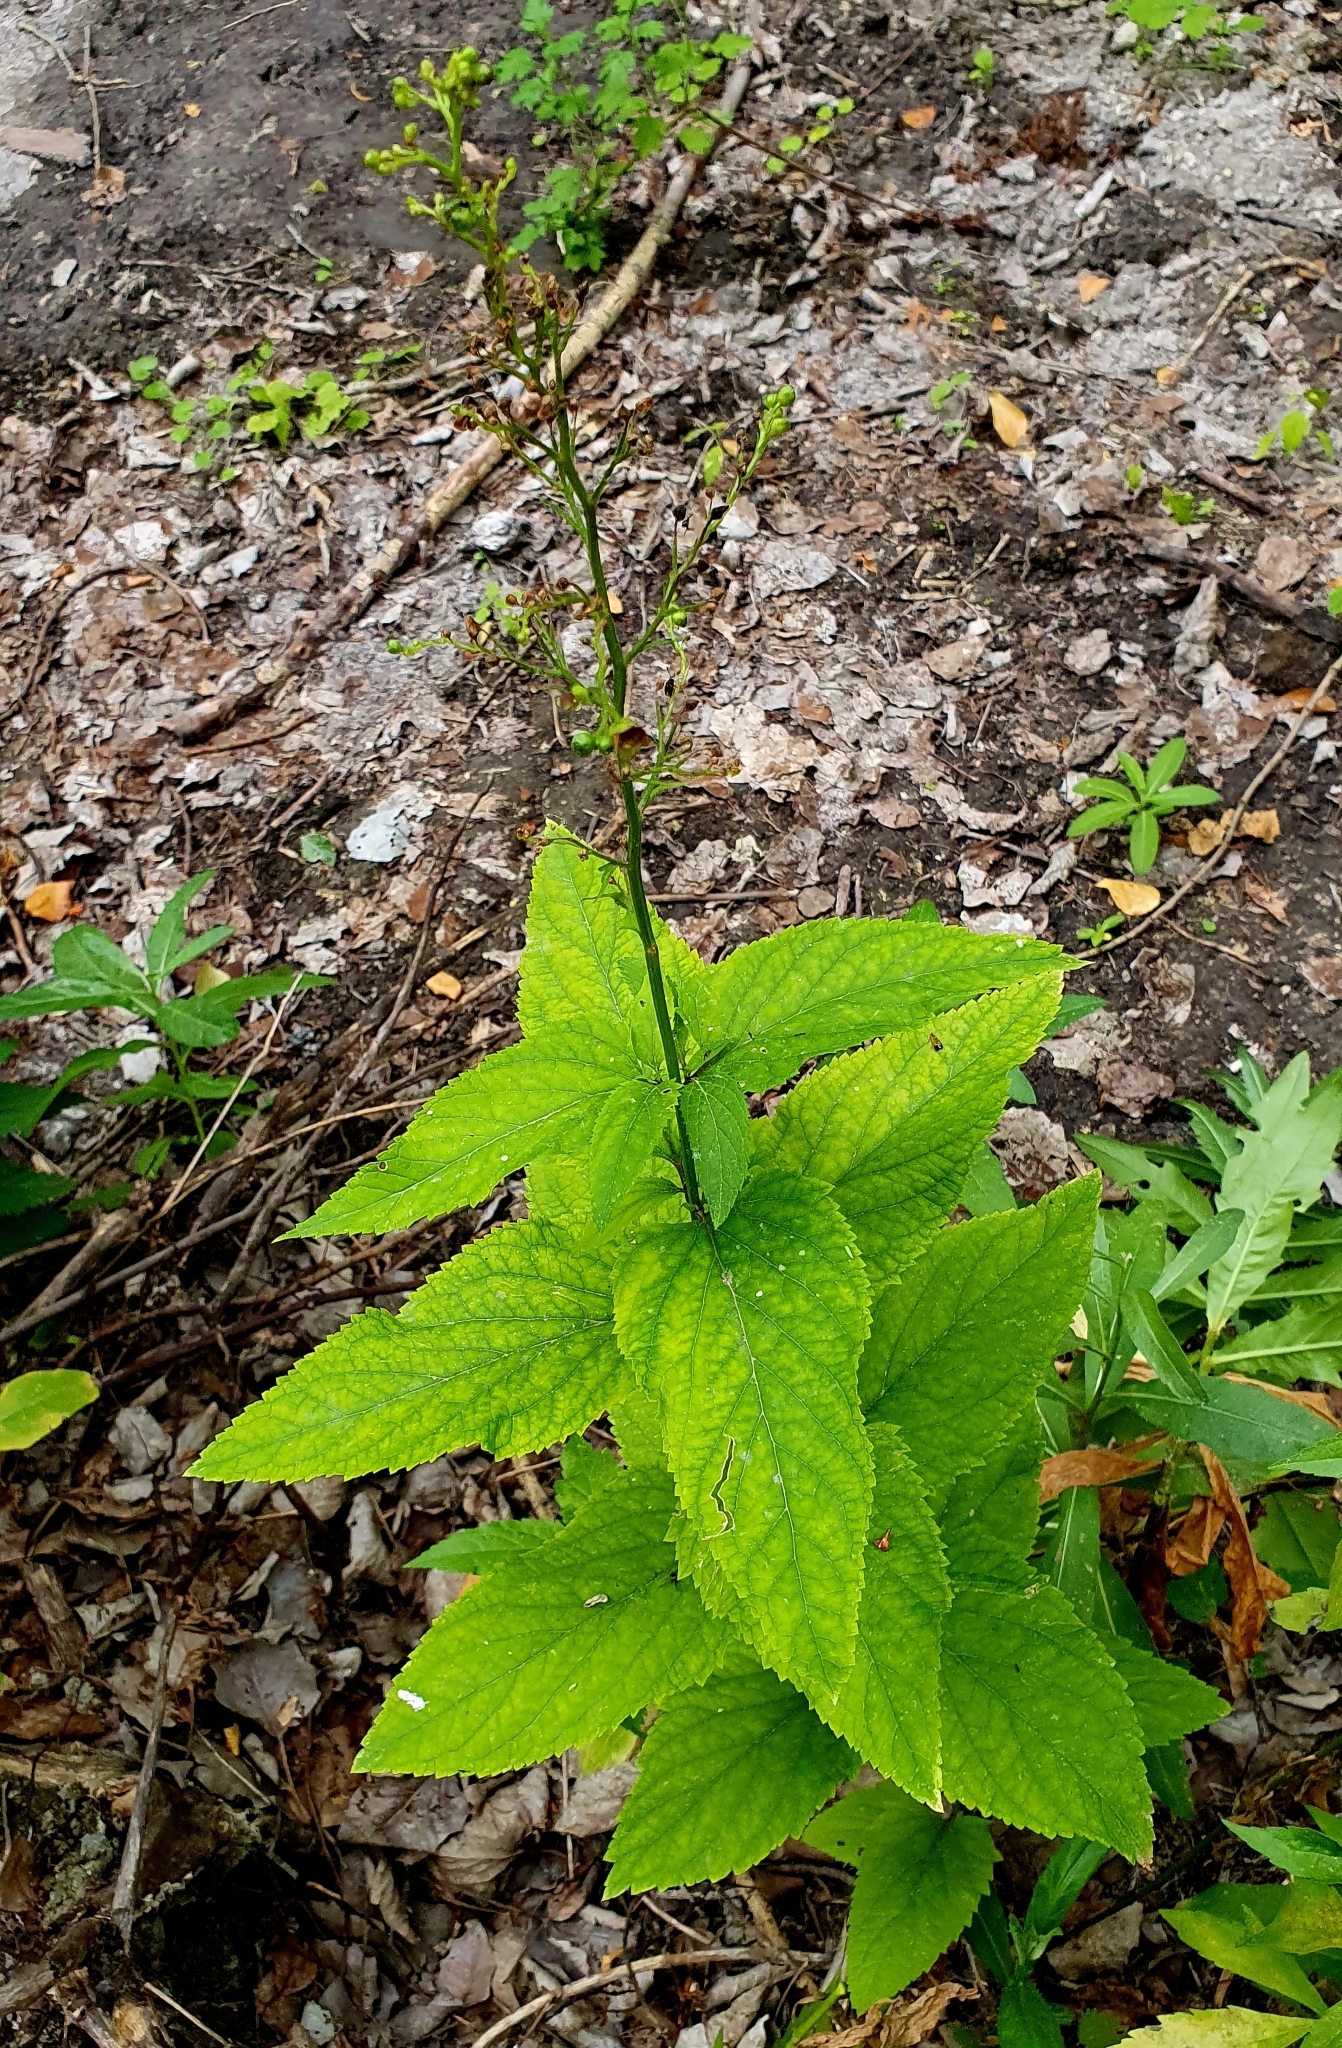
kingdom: Plantae
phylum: Tracheophyta
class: Magnoliopsida
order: Lamiales
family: Scrophulariaceae
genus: Scrophularia
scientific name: Scrophularia nodosa
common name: Common figwort
